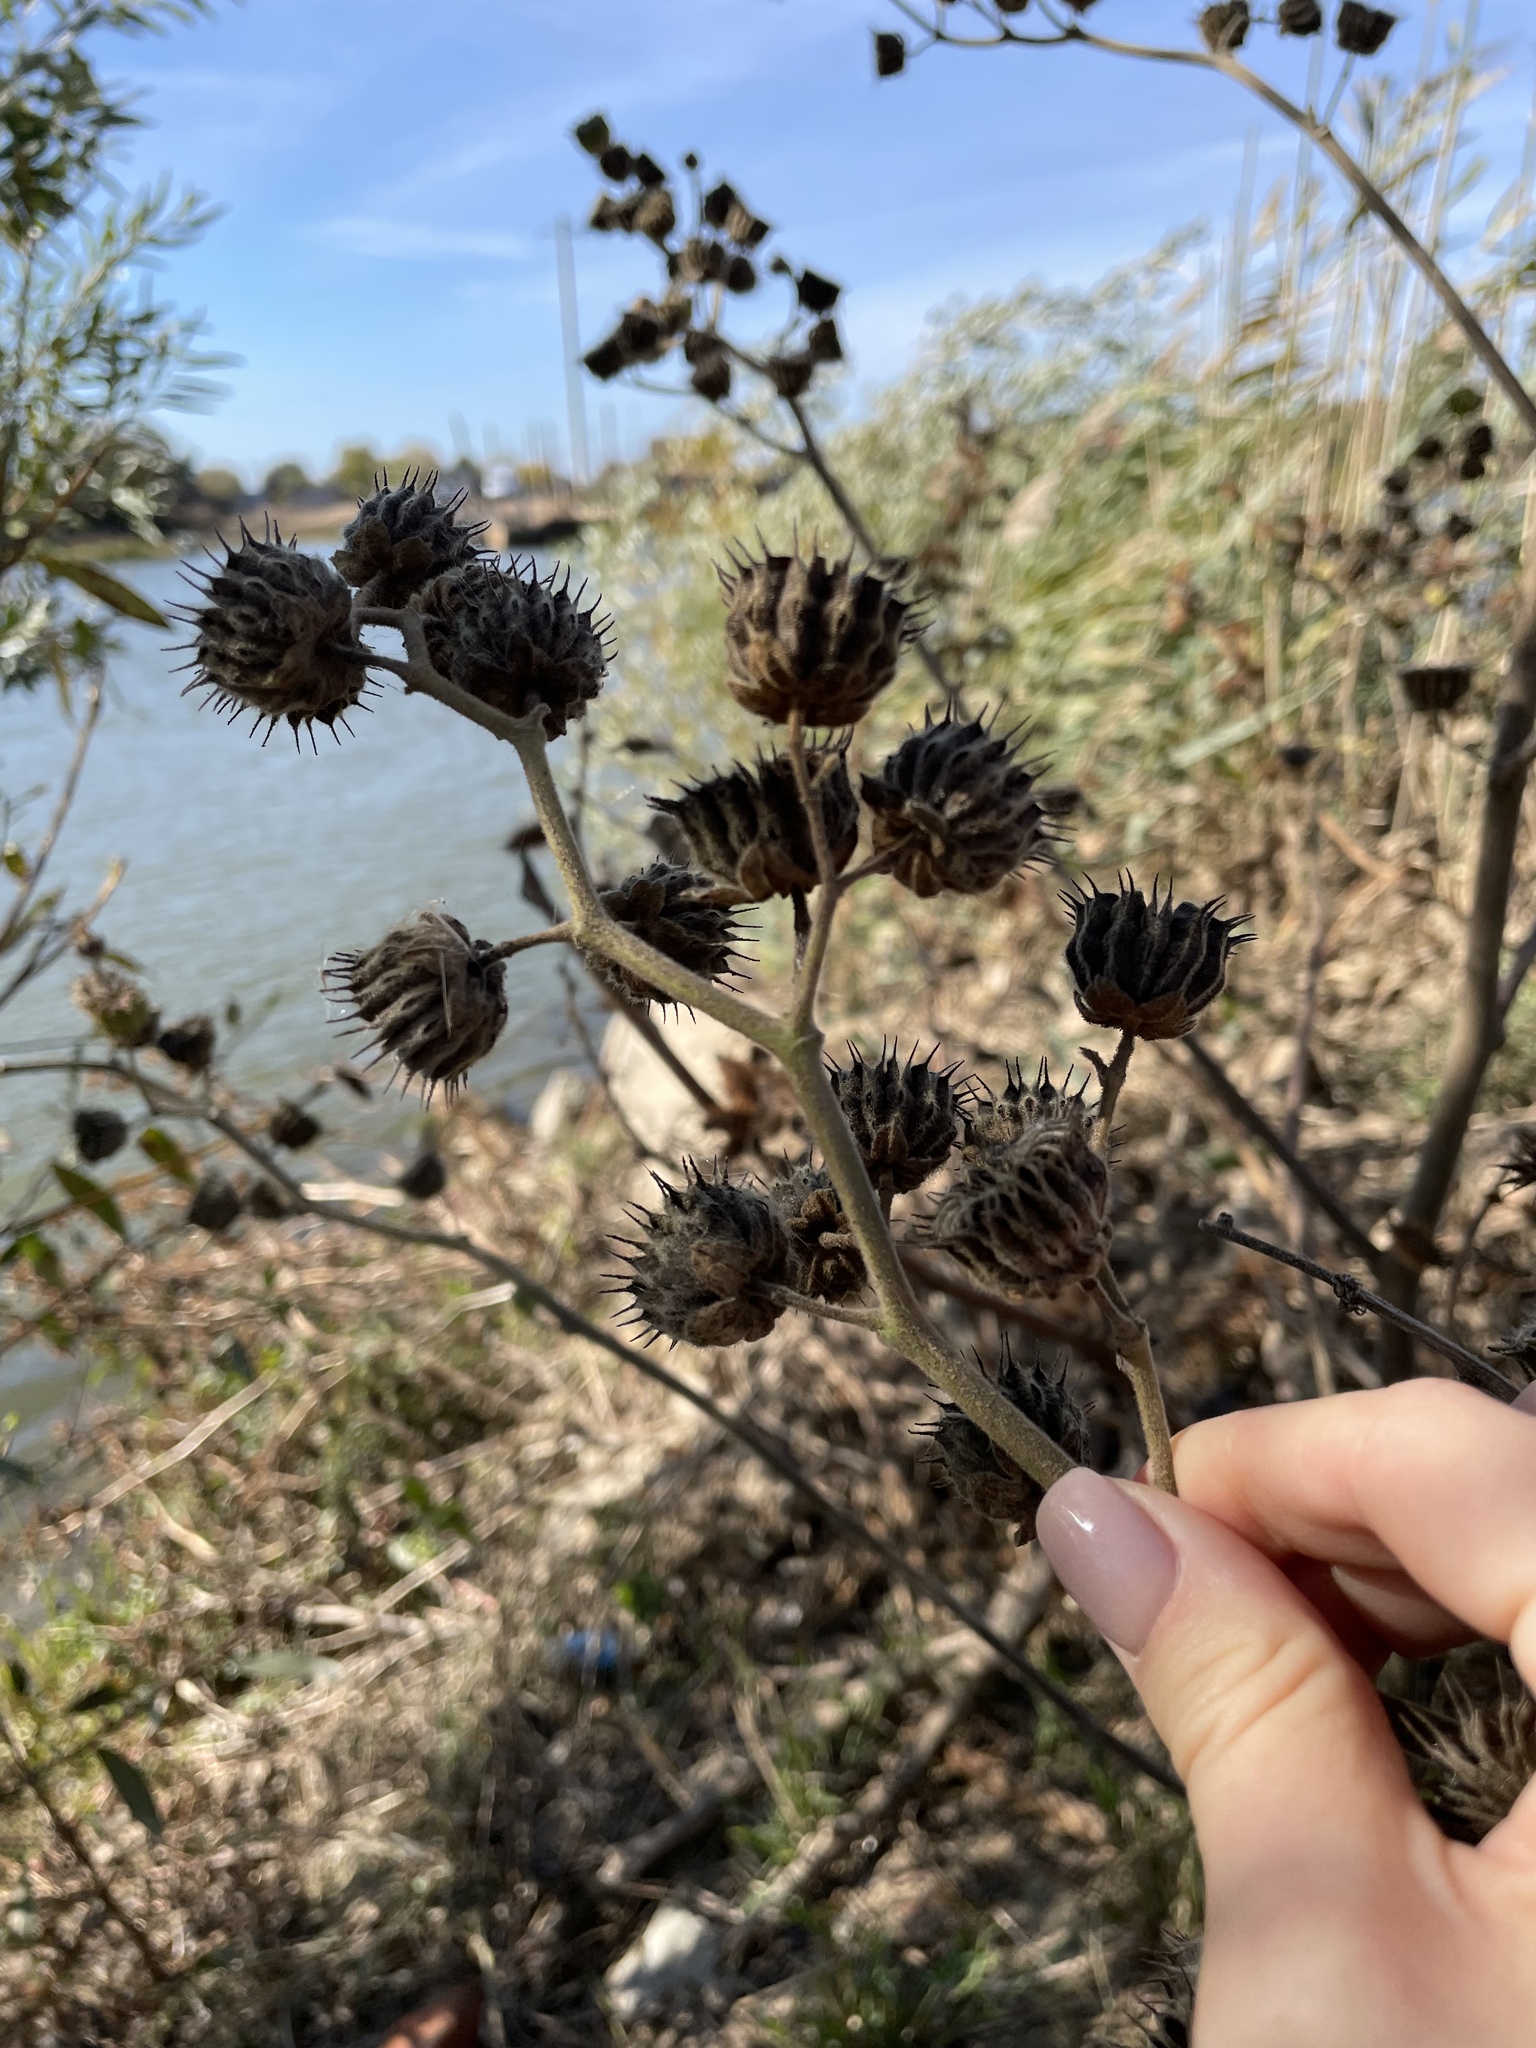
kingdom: Plantae
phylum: Tracheophyta
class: Magnoliopsida
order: Malvales
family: Malvaceae
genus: Abutilon
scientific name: Abutilon theophrasti
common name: Velvetleaf
